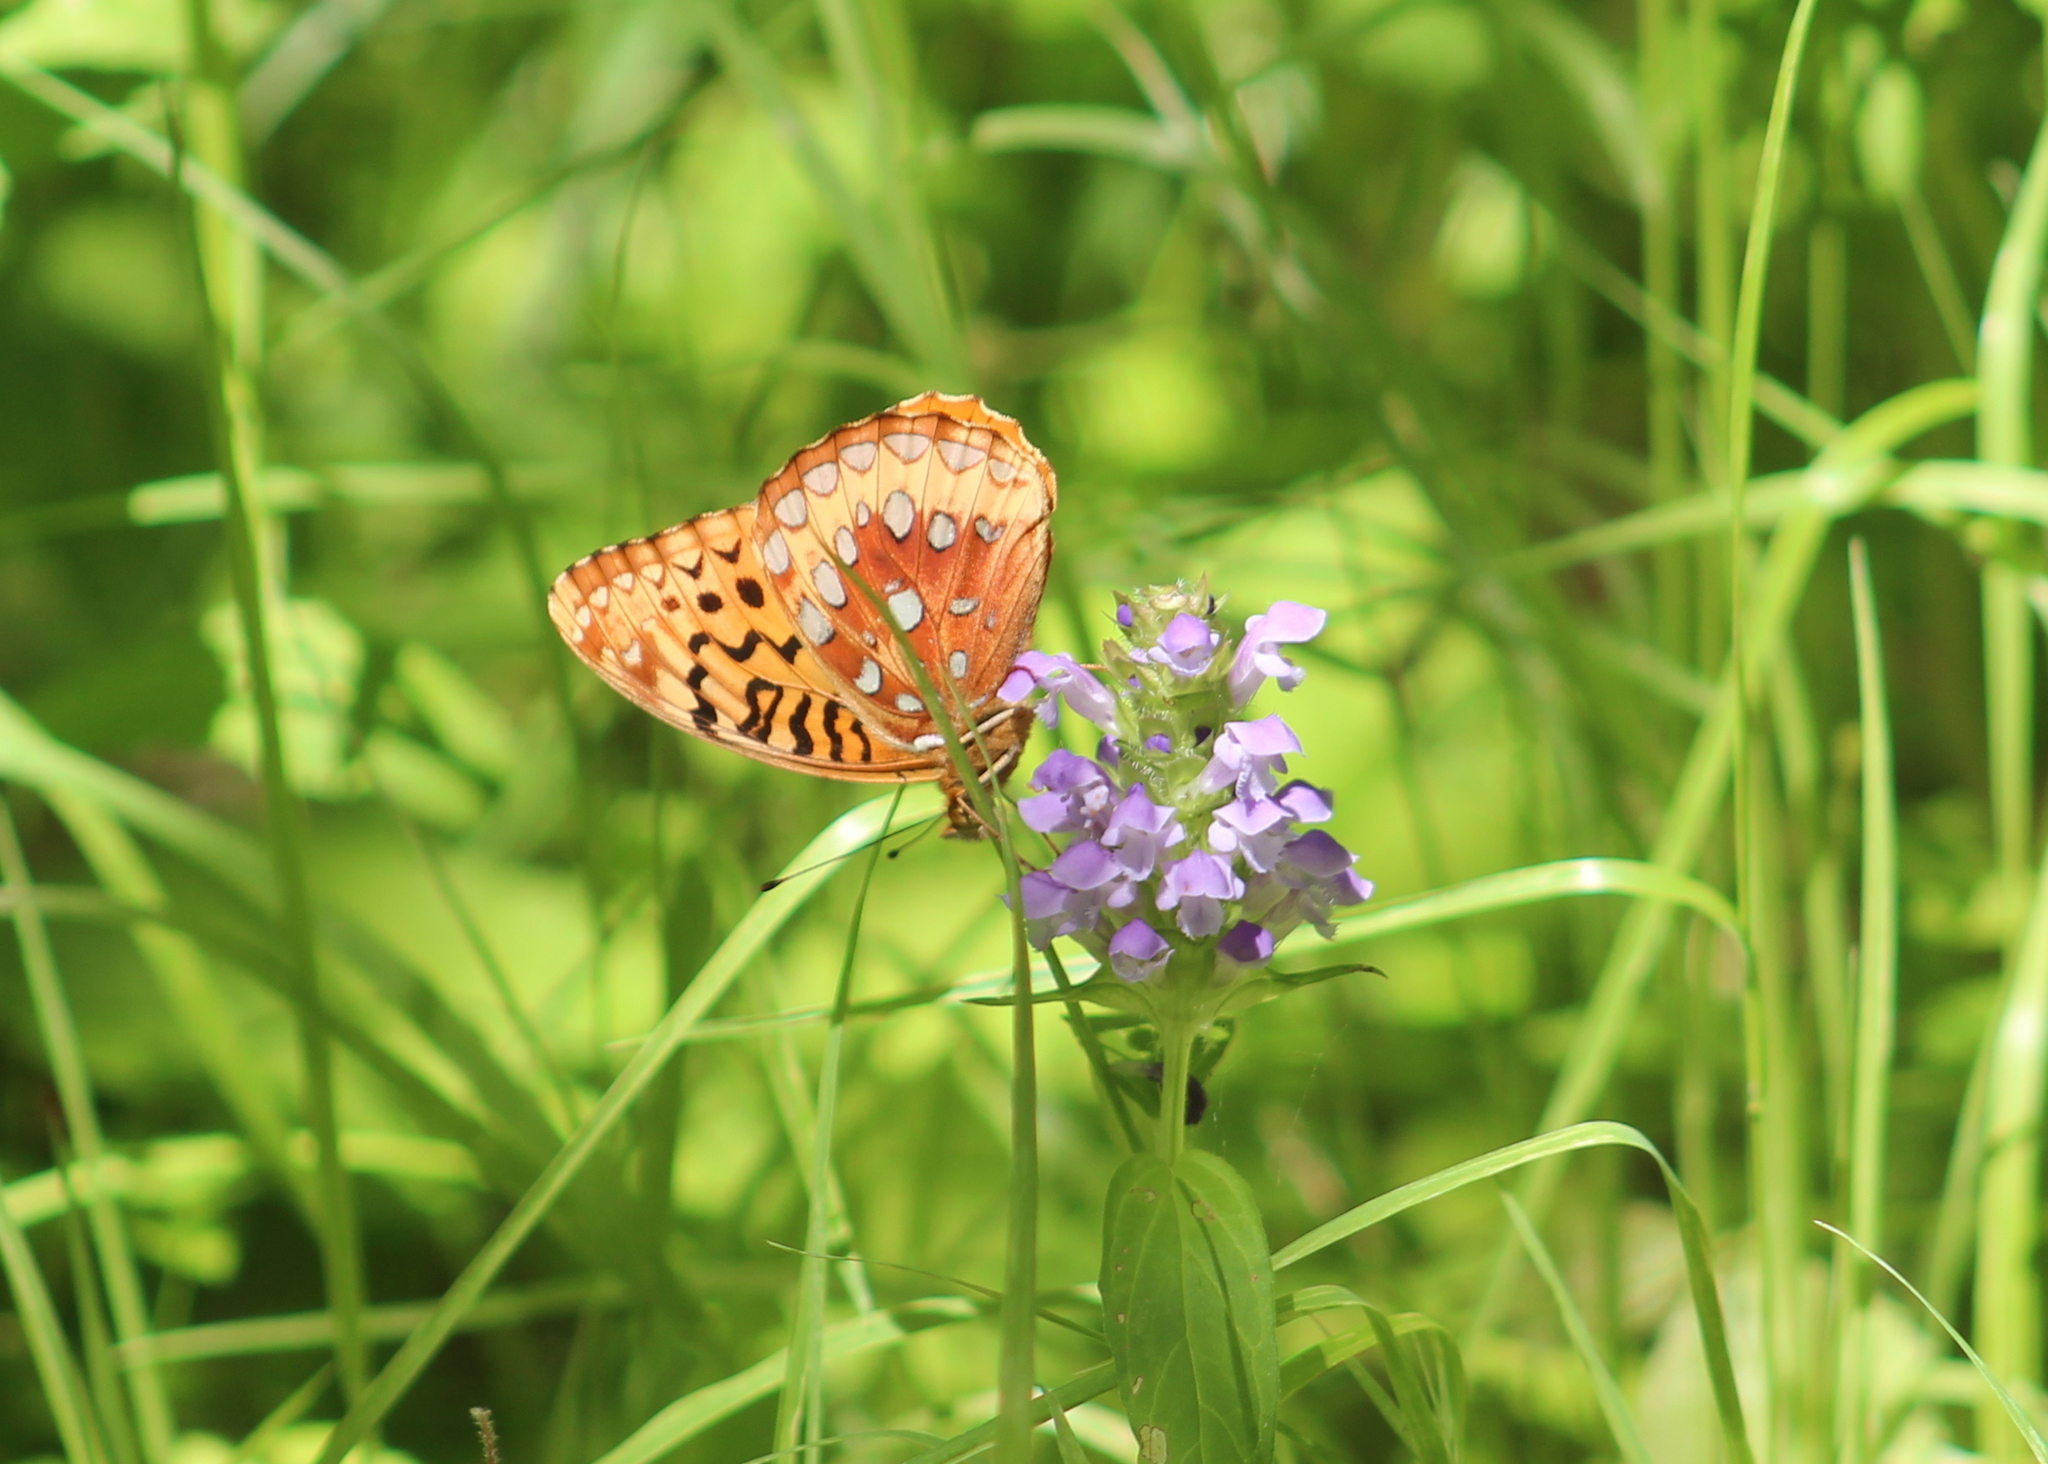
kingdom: Animalia
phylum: Arthropoda
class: Insecta
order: Lepidoptera
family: Nymphalidae
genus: Speyeria
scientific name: Speyeria cybele
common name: Great spangled fritillary
